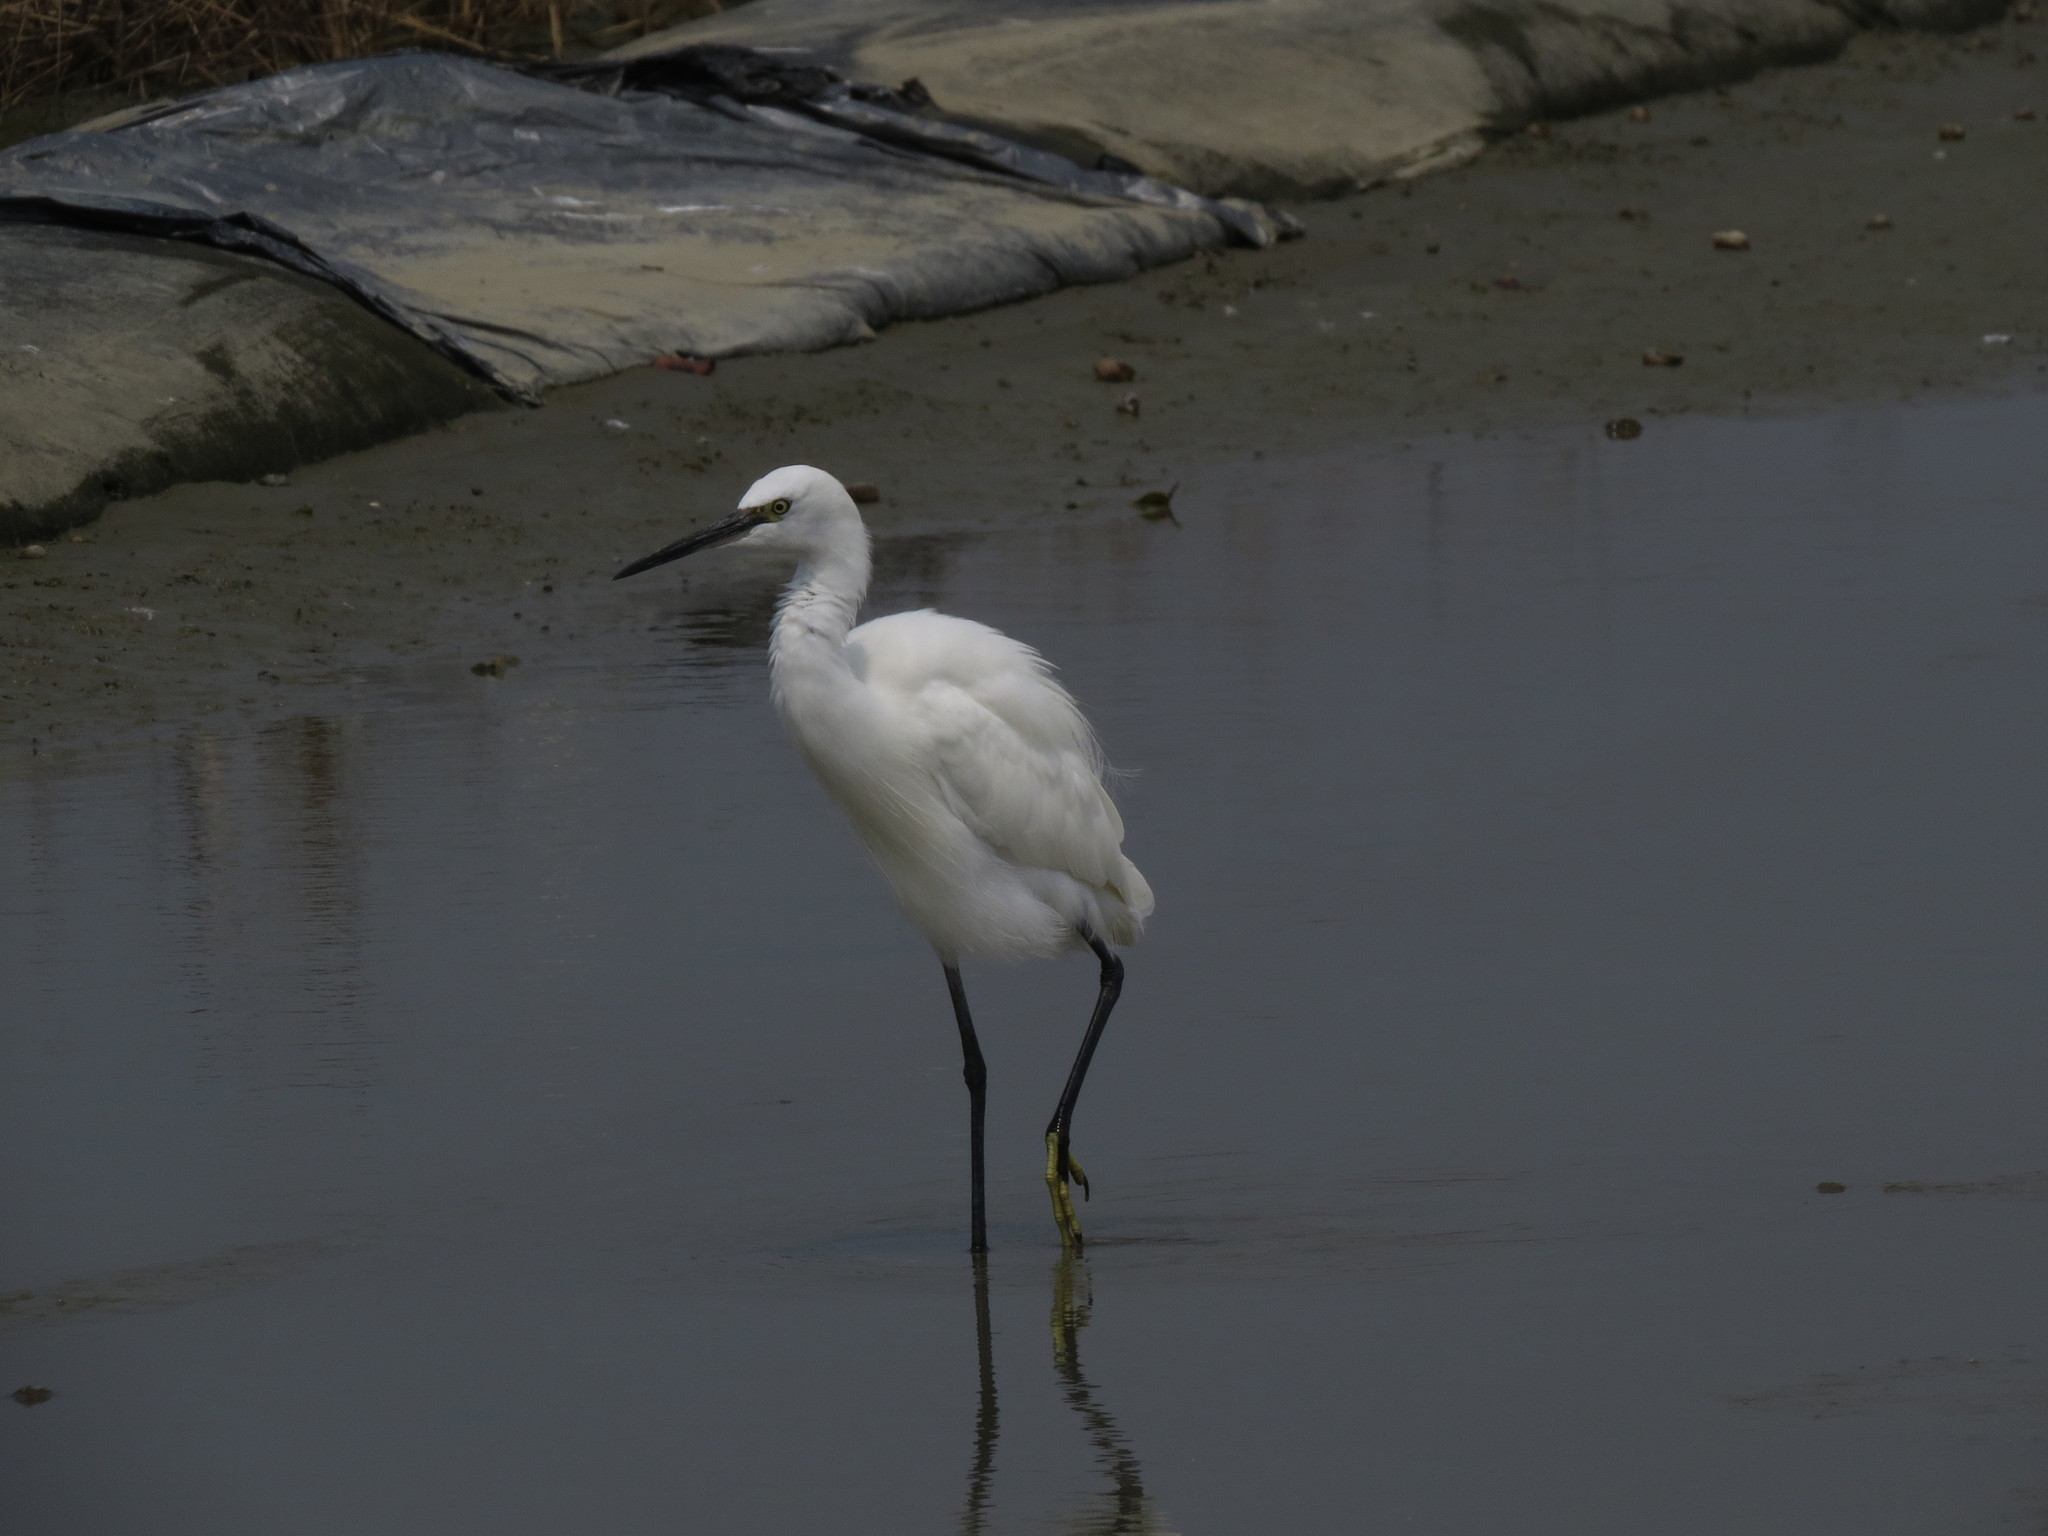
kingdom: Animalia
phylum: Chordata
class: Aves
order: Pelecaniformes
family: Ardeidae
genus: Egretta
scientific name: Egretta garzetta
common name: Little egret
